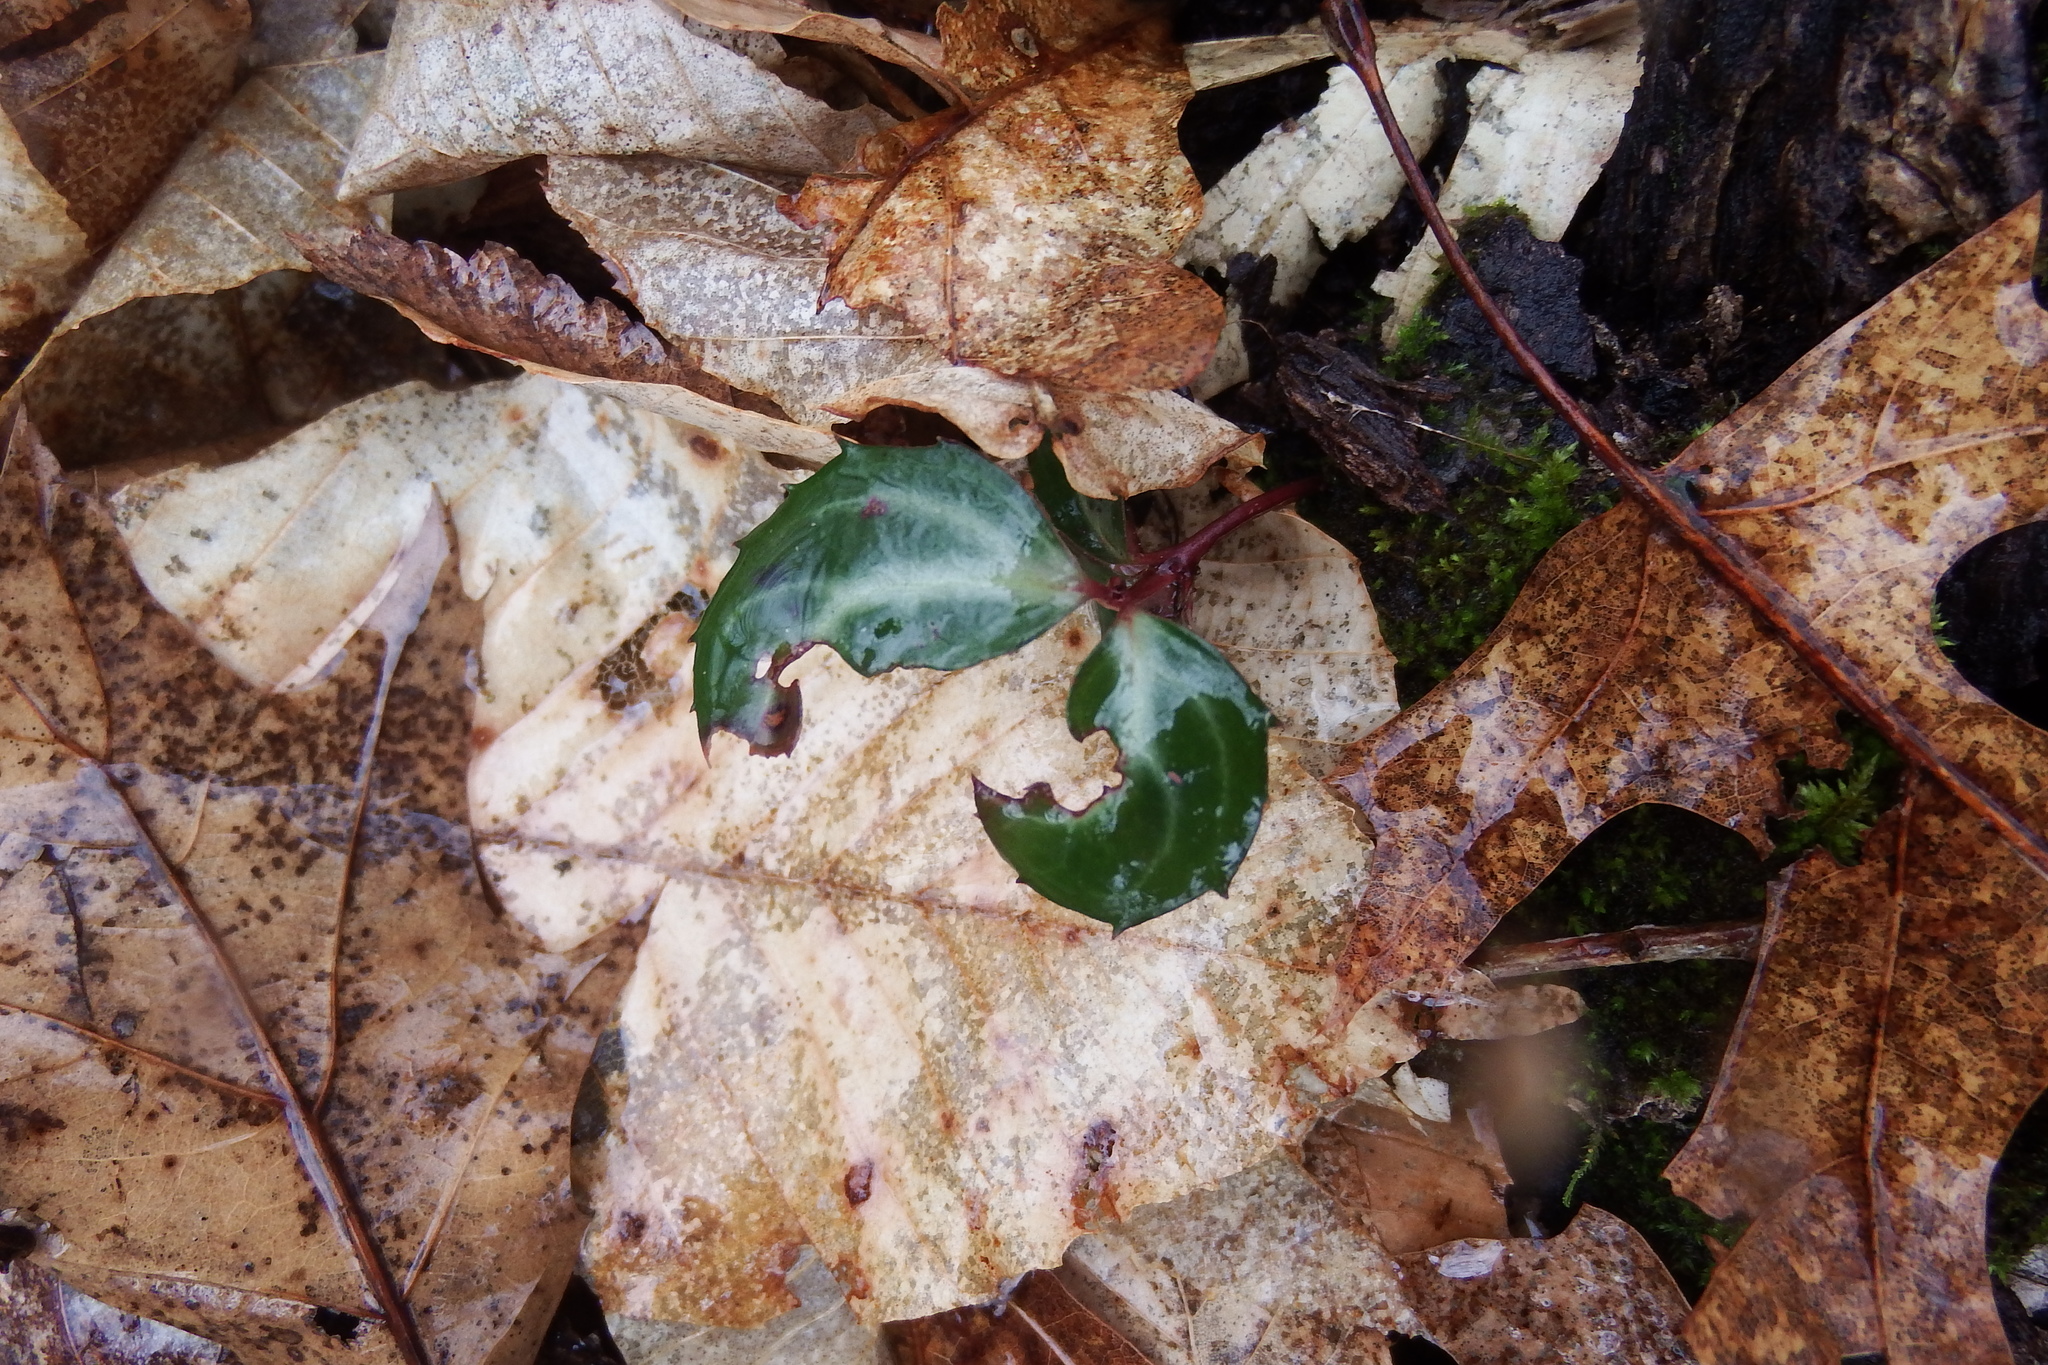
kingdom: Plantae
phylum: Tracheophyta
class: Magnoliopsida
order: Ericales
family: Ericaceae
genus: Chimaphila
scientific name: Chimaphila maculata
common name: Spotted pipsissewa
